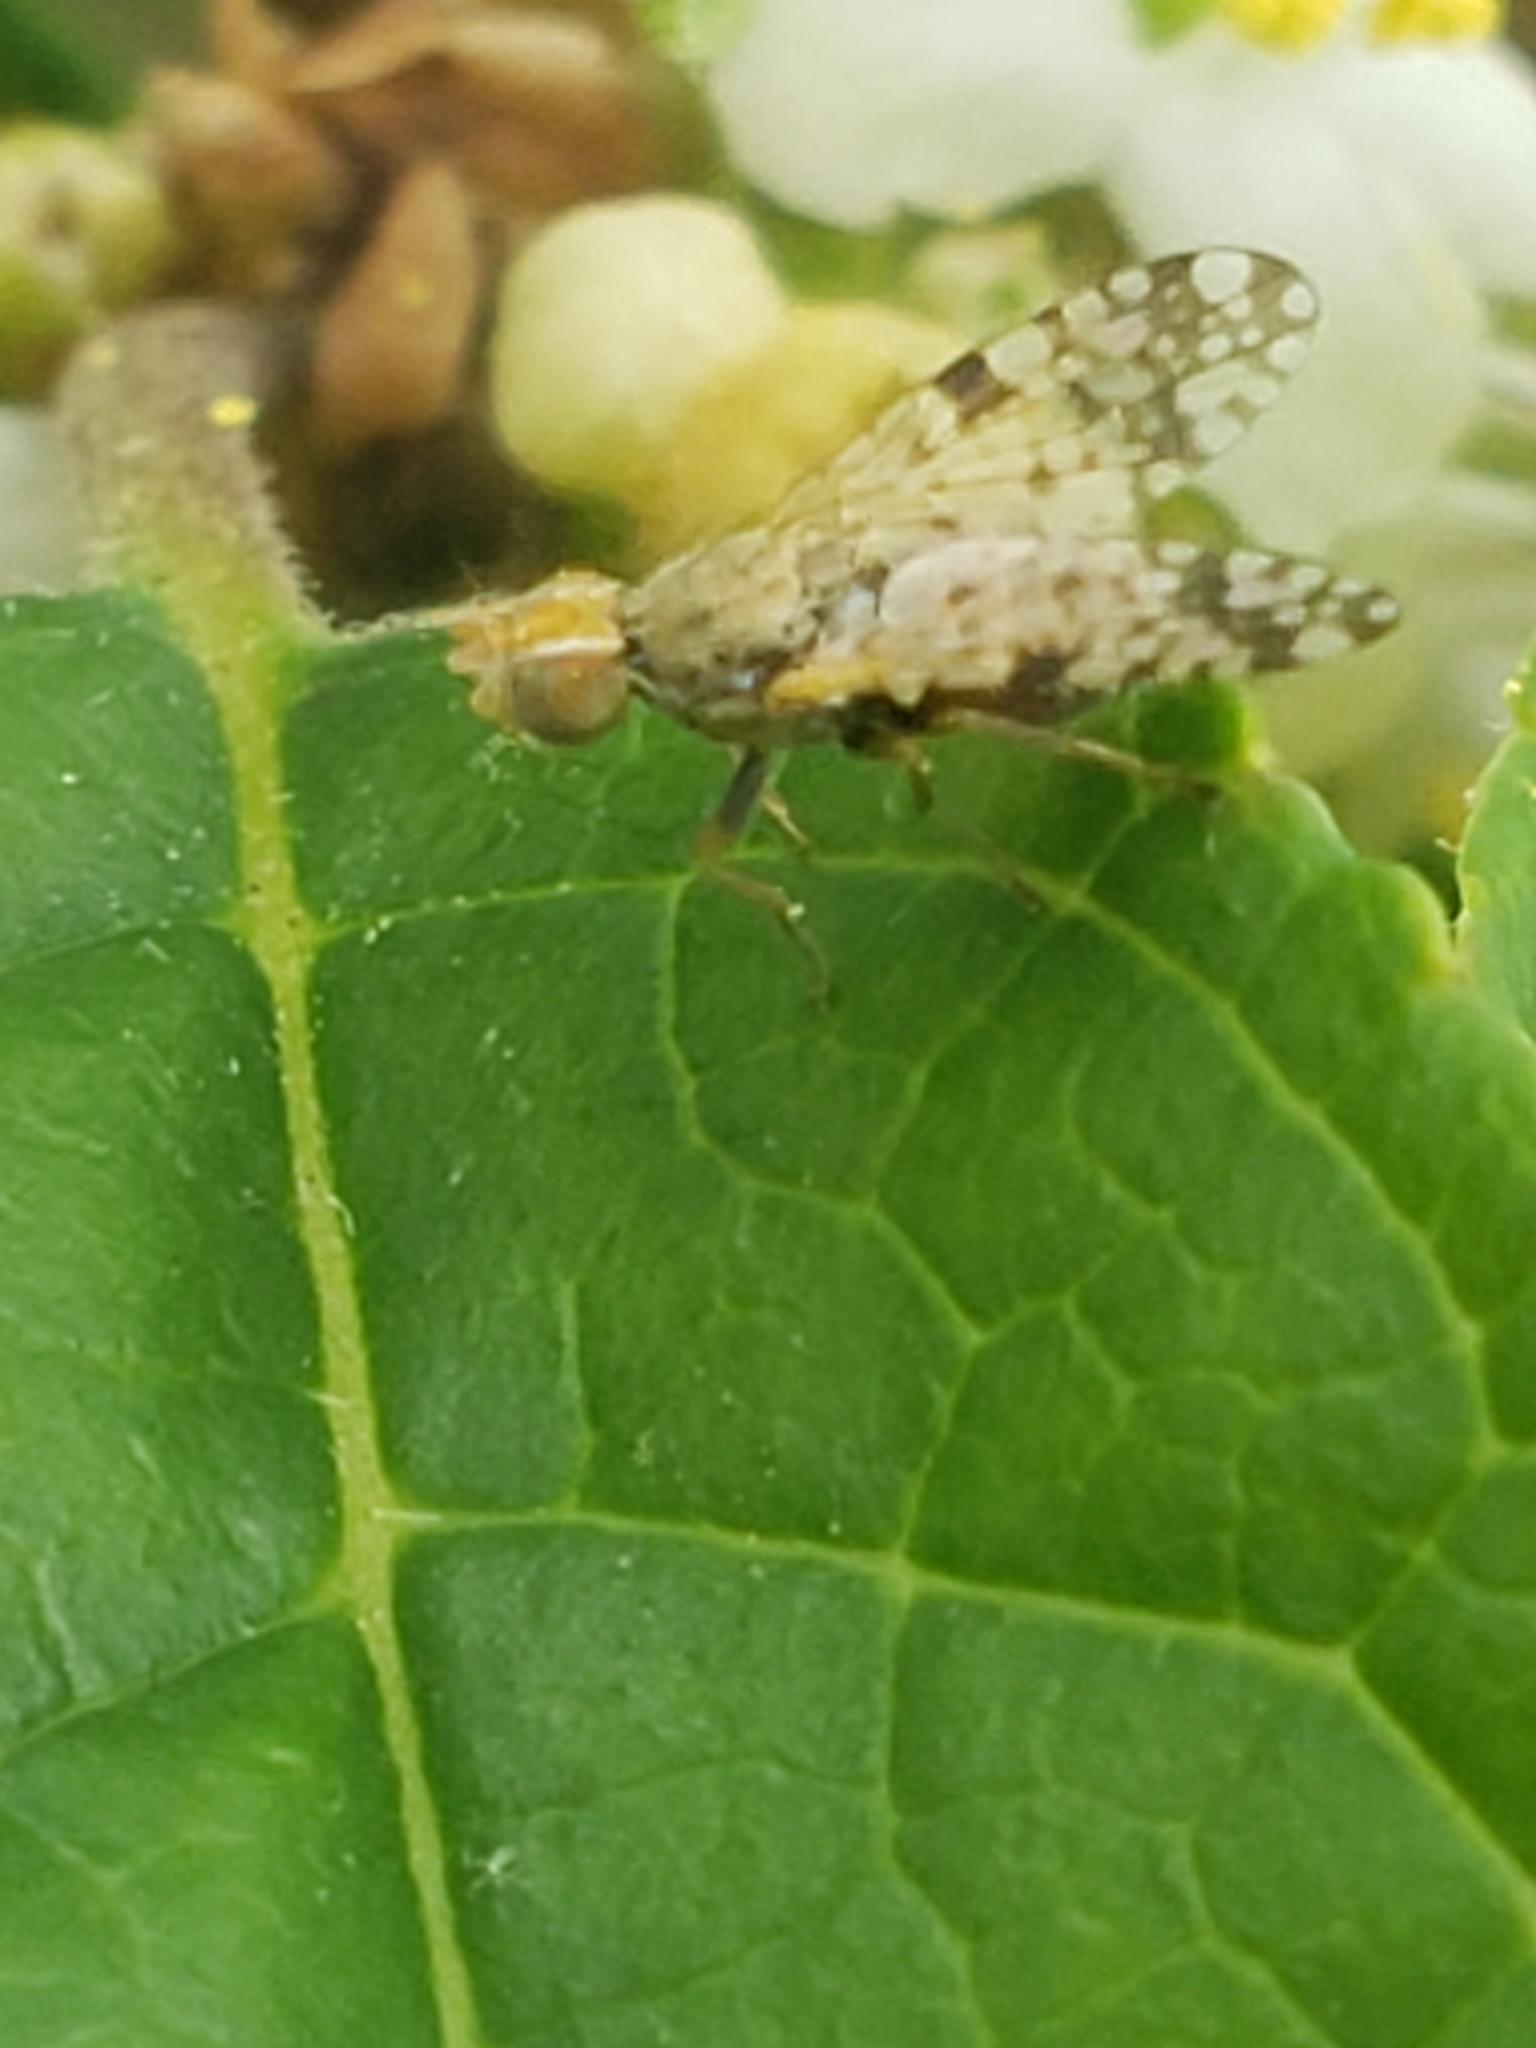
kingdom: Animalia
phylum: Arthropoda
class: Insecta
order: Diptera
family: Tephritidae
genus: Dioxyna
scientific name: Dioxyna picciola
